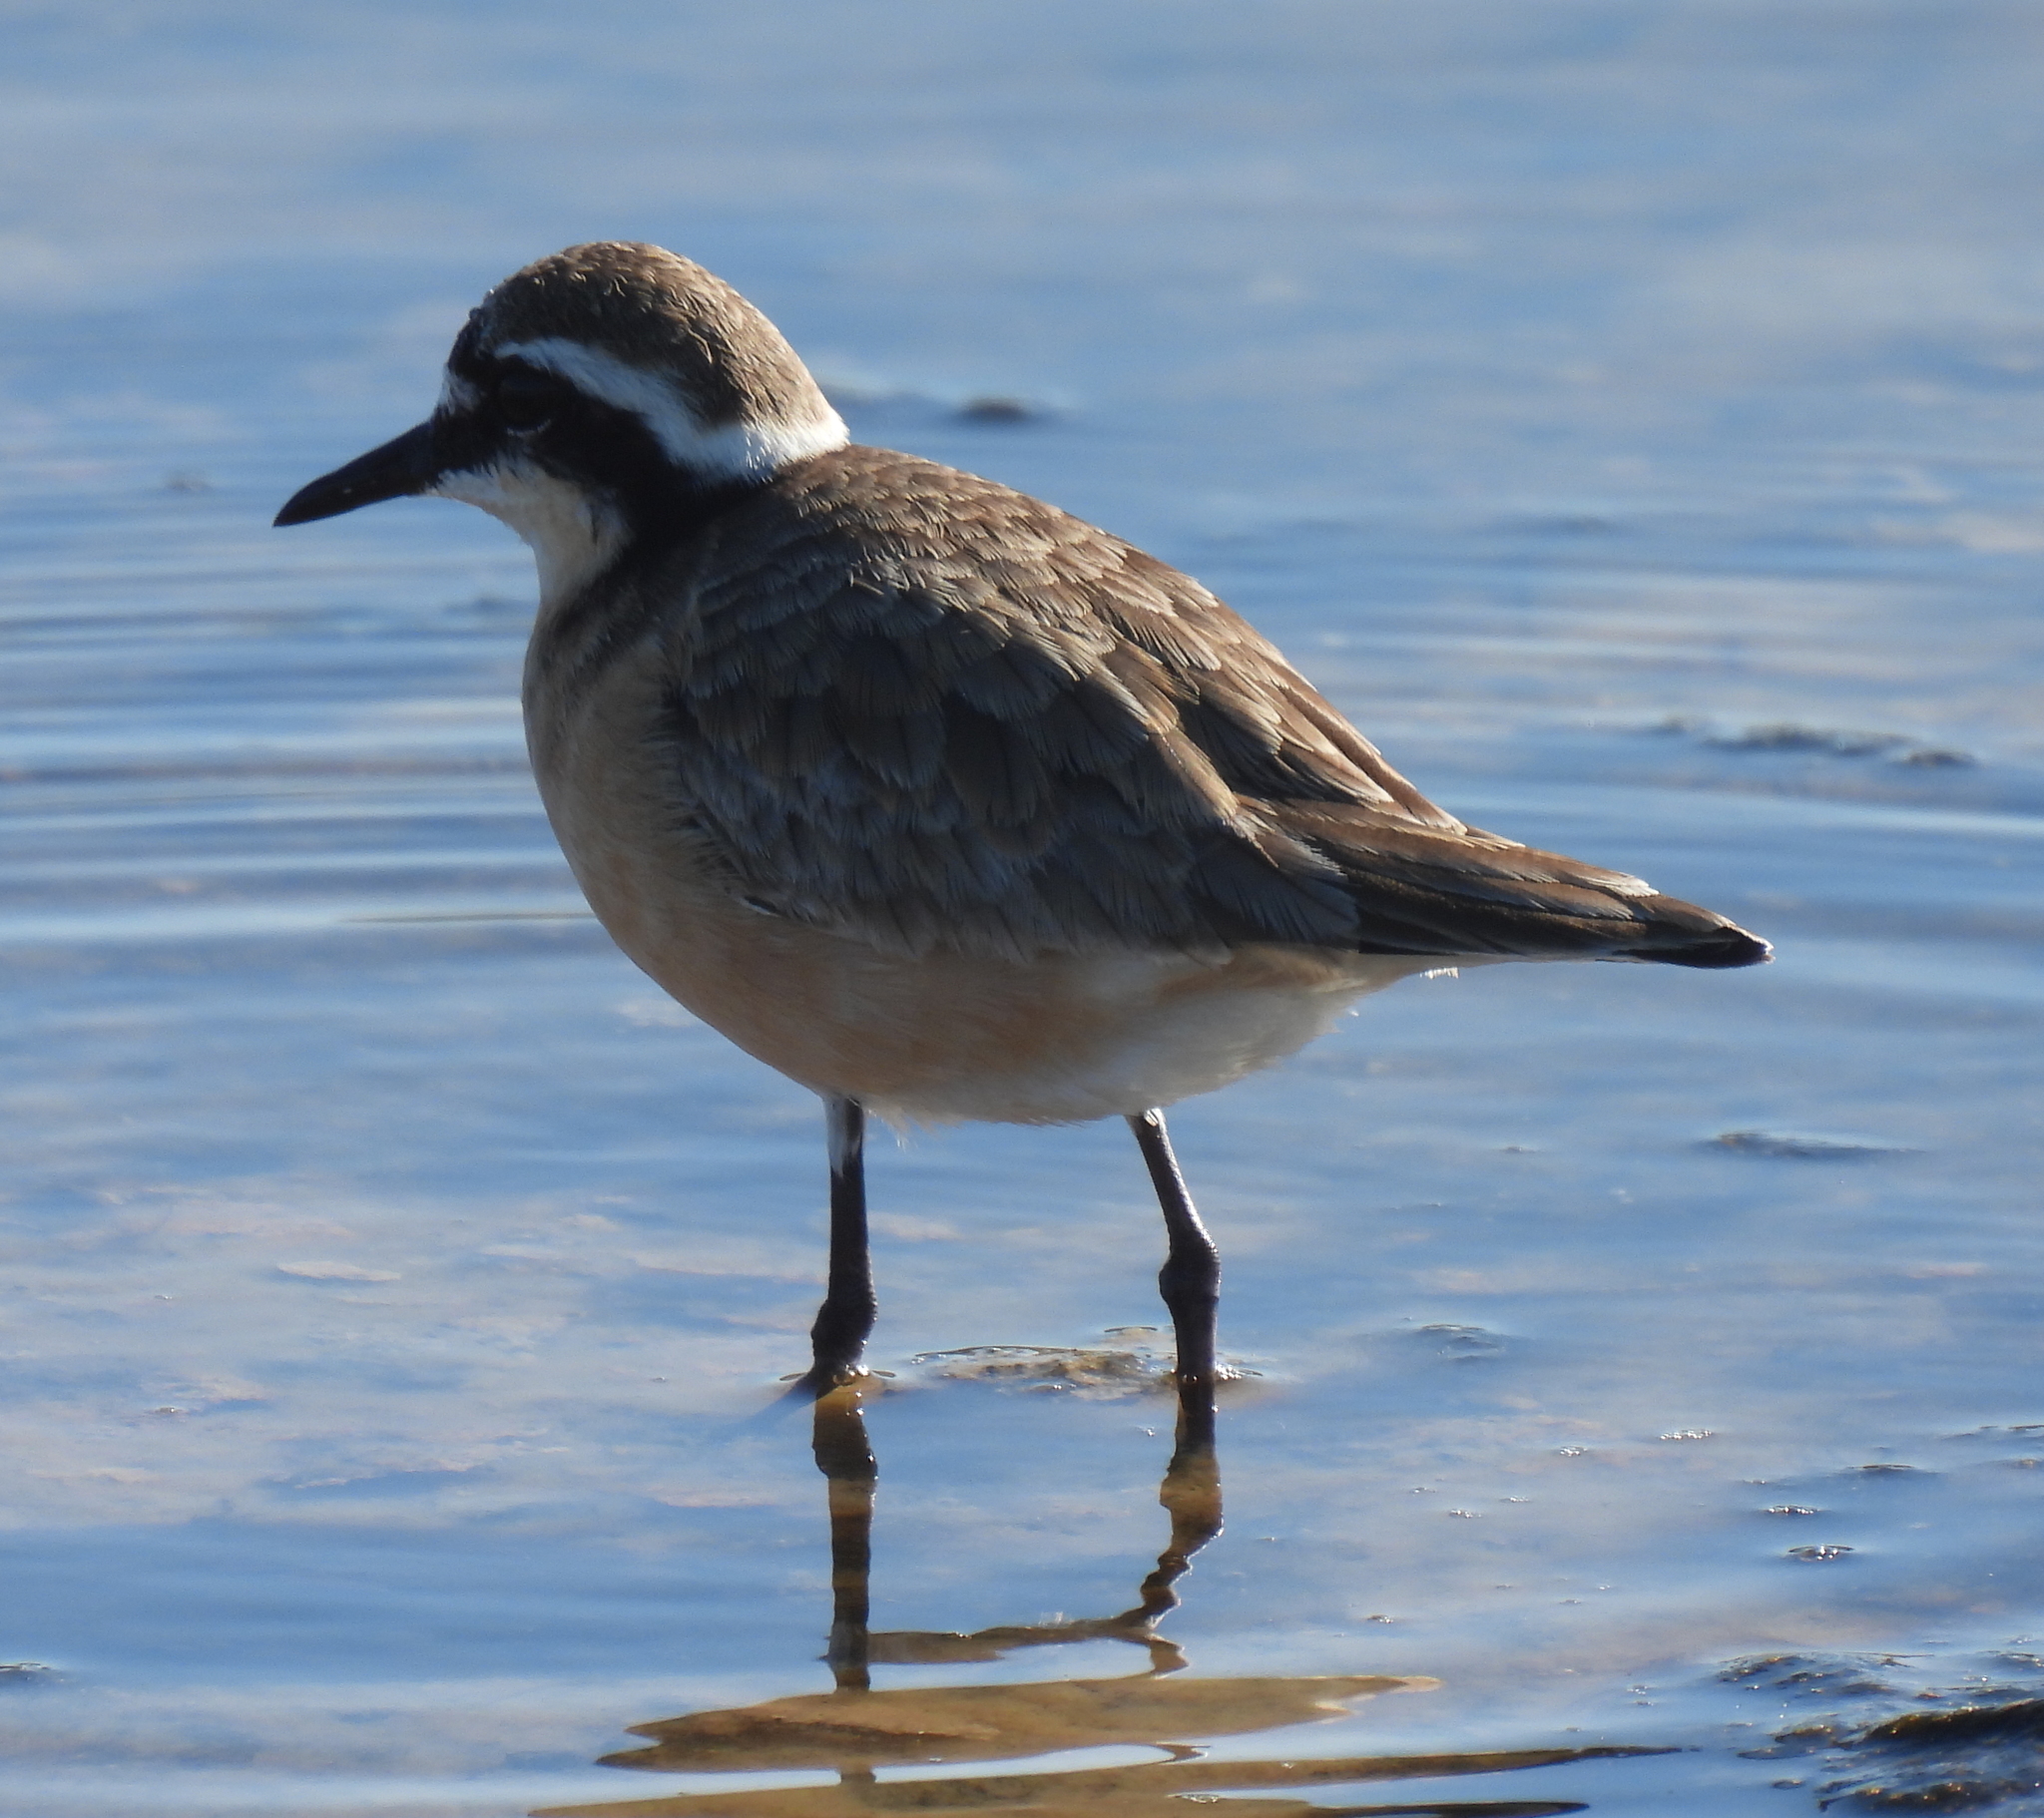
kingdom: Animalia
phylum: Chordata
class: Aves
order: Charadriiformes
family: Charadriidae
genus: Anarhynchus
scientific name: Anarhynchus
